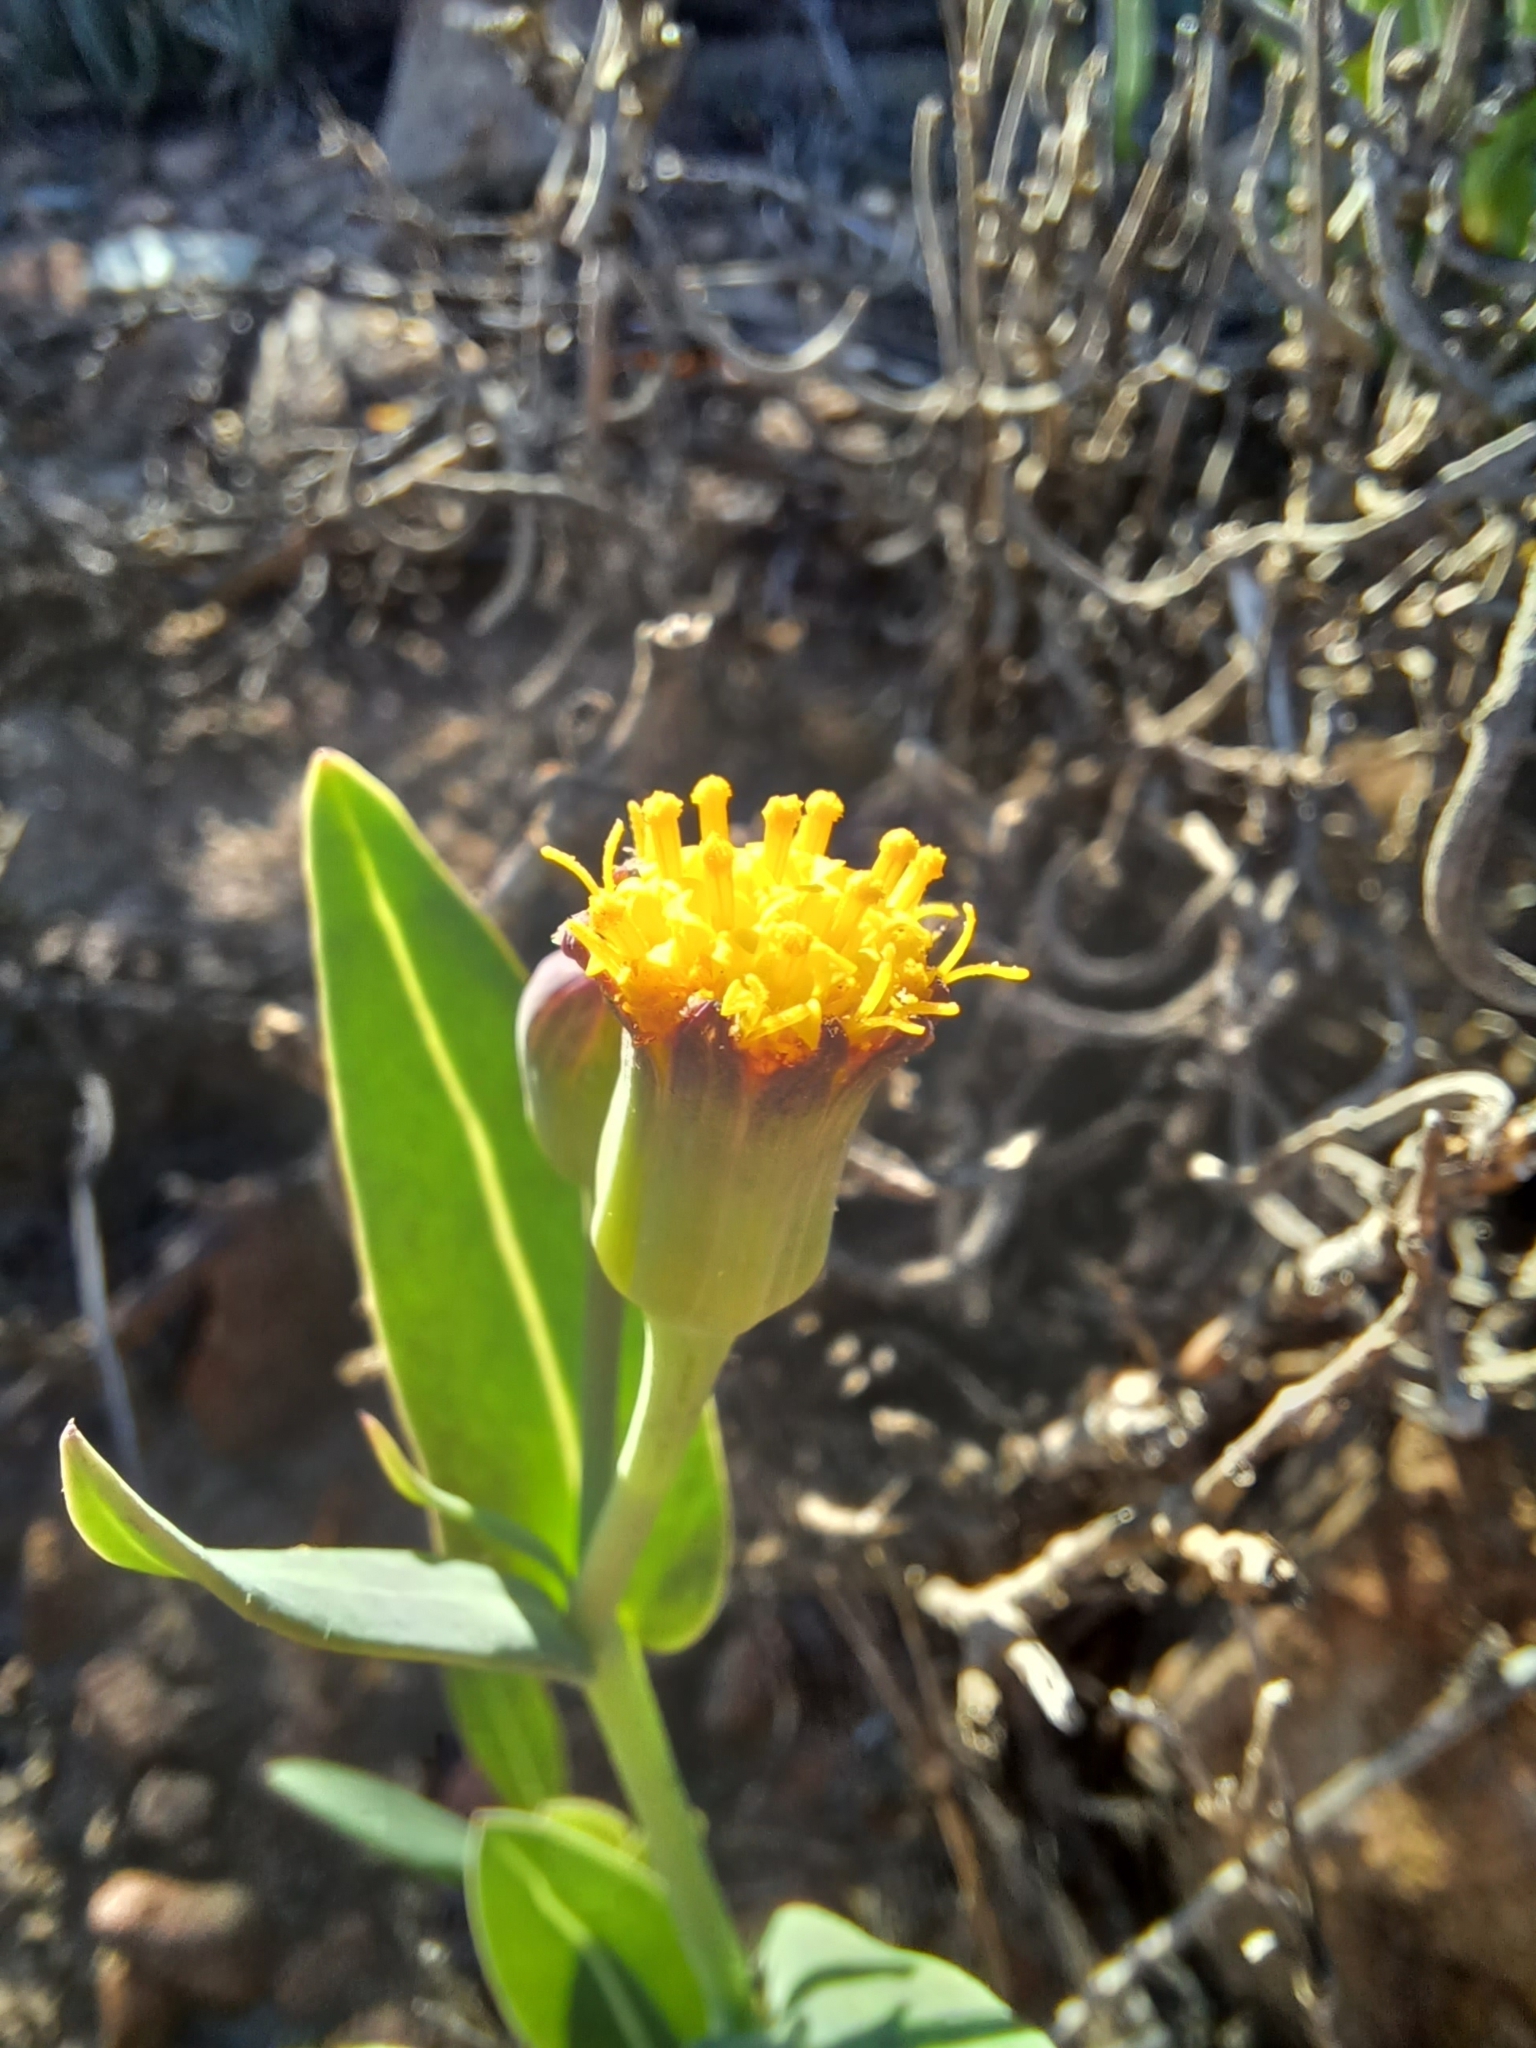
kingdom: Plantae
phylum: Tracheophyta
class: Magnoliopsida
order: Asterales
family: Asteraceae
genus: Othonna
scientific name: Othonna gymnodiscus
